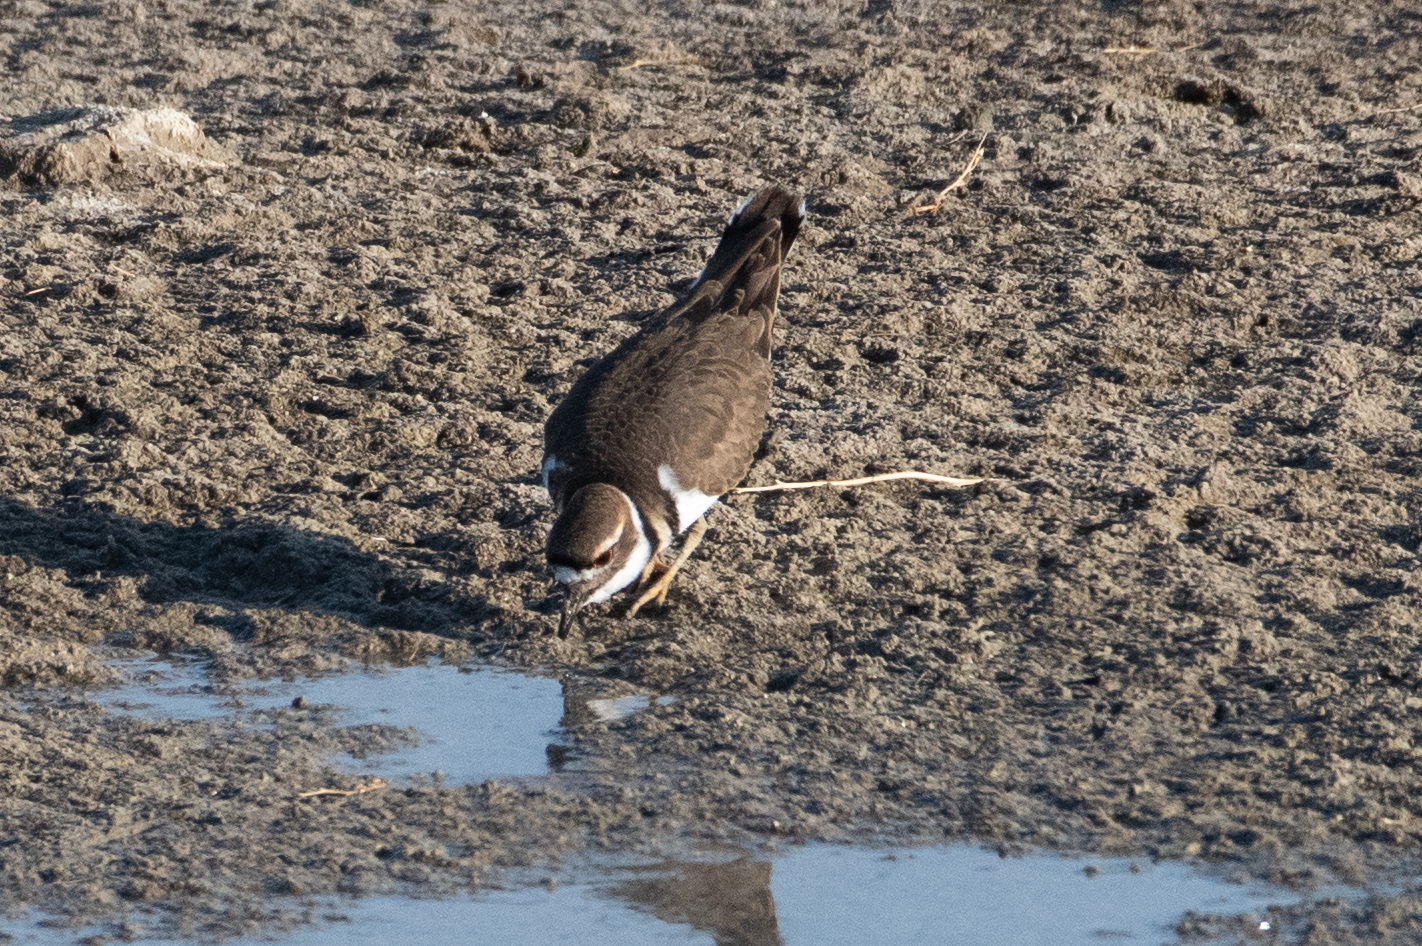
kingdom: Animalia
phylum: Chordata
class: Aves
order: Charadriiformes
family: Charadriidae
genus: Charadrius
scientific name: Charadrius vociferus
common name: Killdeer
